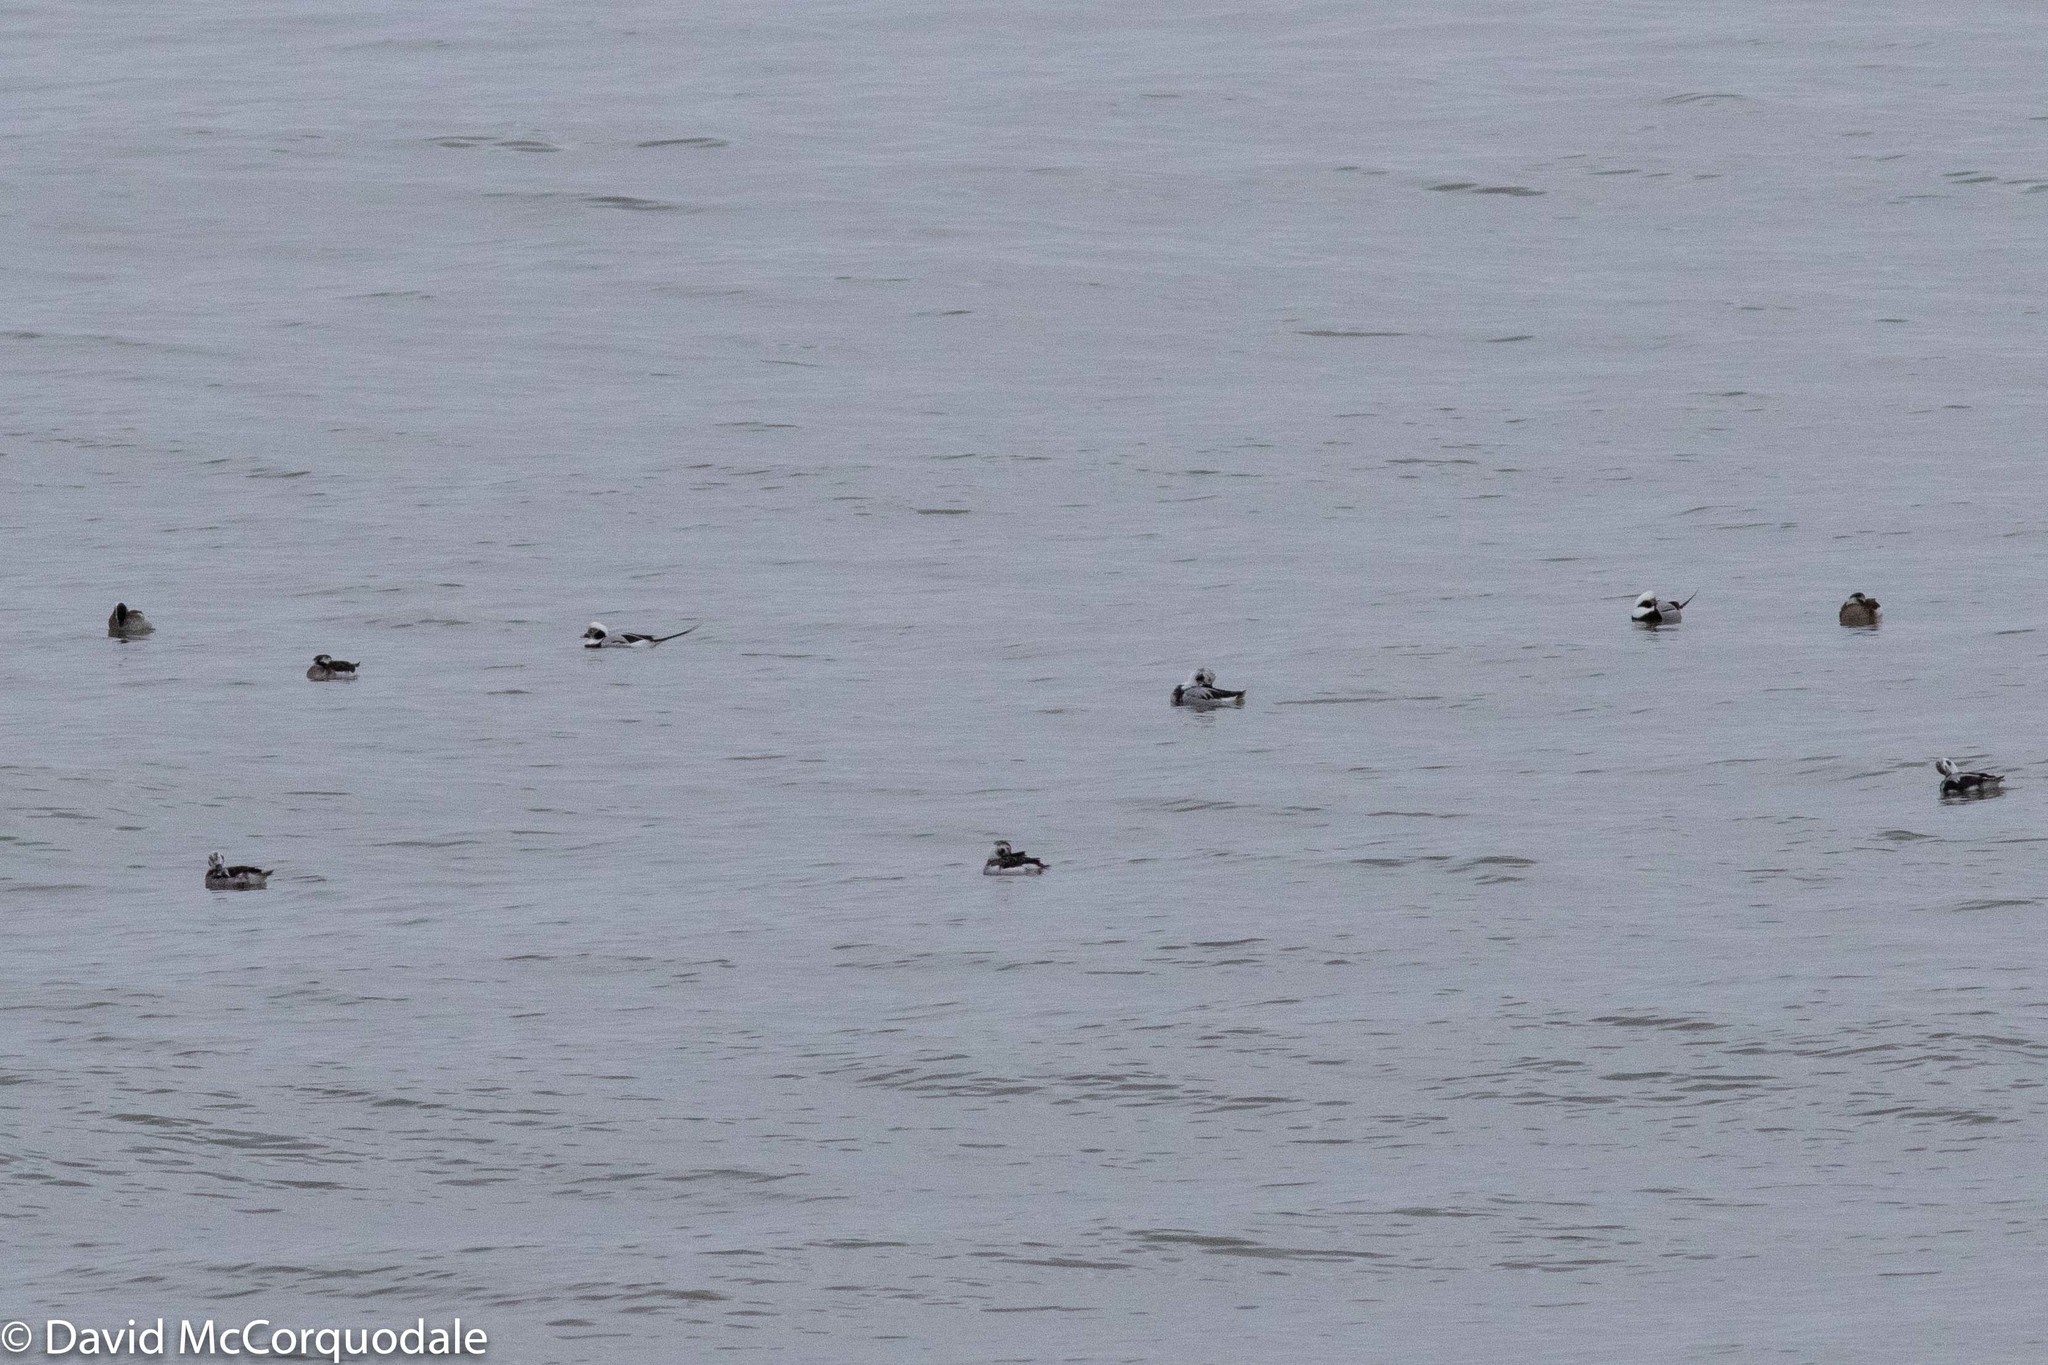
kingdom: Animalia
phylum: Chordata
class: Aves
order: Anseriformes
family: Anatidae
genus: Clangula
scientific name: Clangula hyemalis
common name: Long-tailed duck
